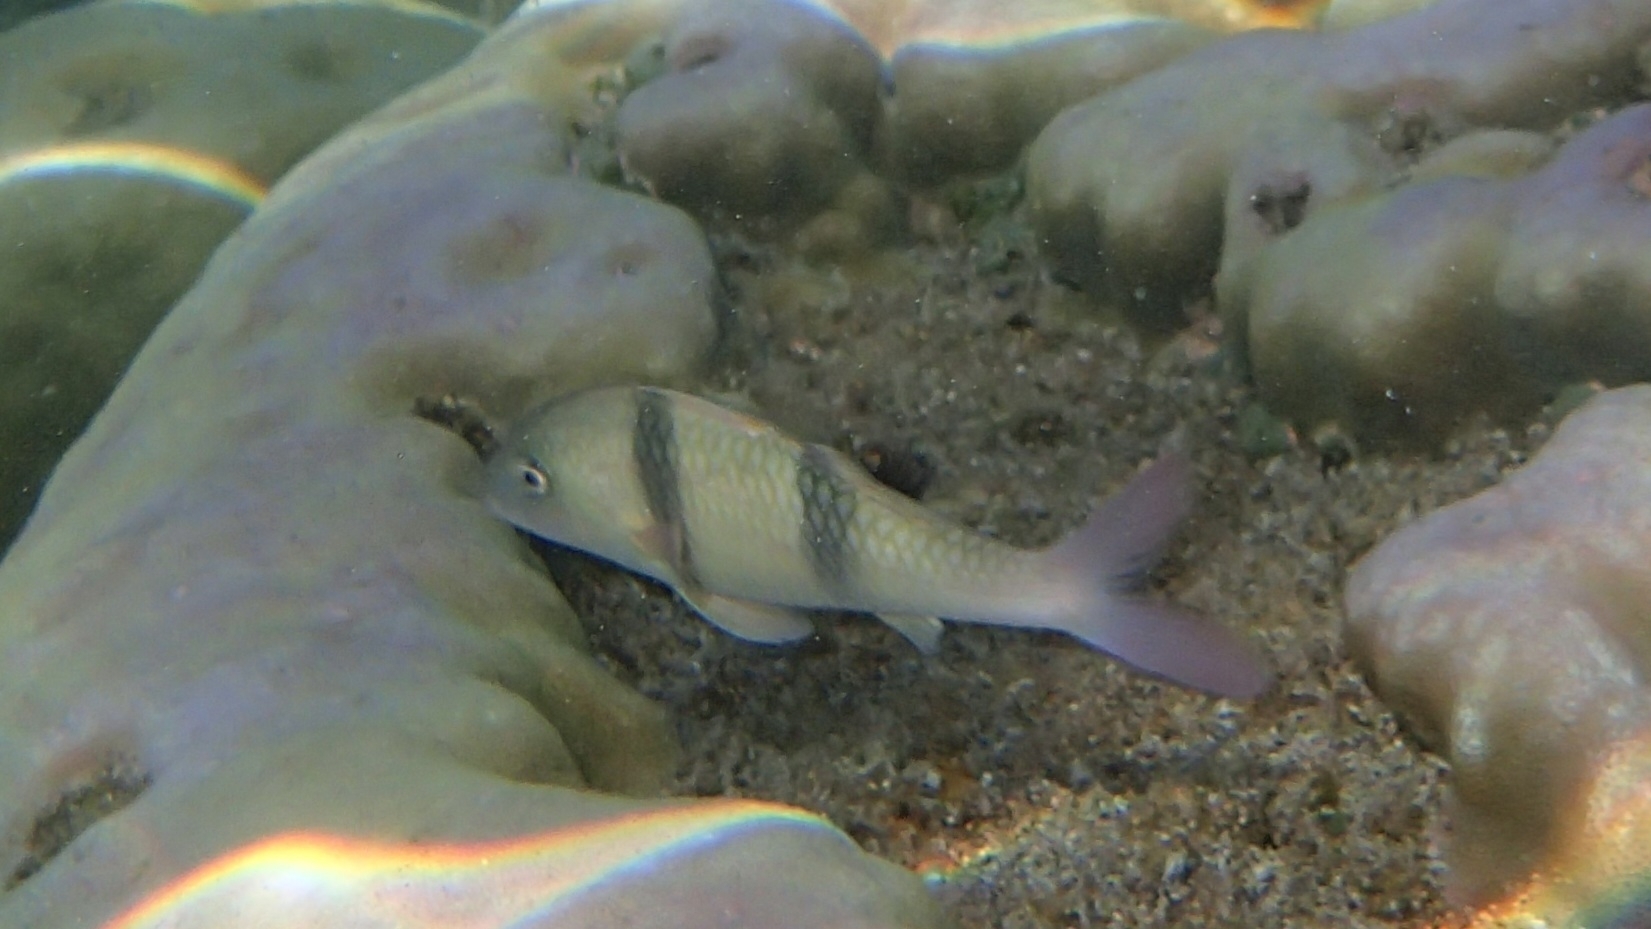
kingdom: Animalia
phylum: Chordata
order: Perciformes
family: Mullidae
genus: Parupeneus
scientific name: Parupeneus trifasciatus
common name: Doublebar goatfish
